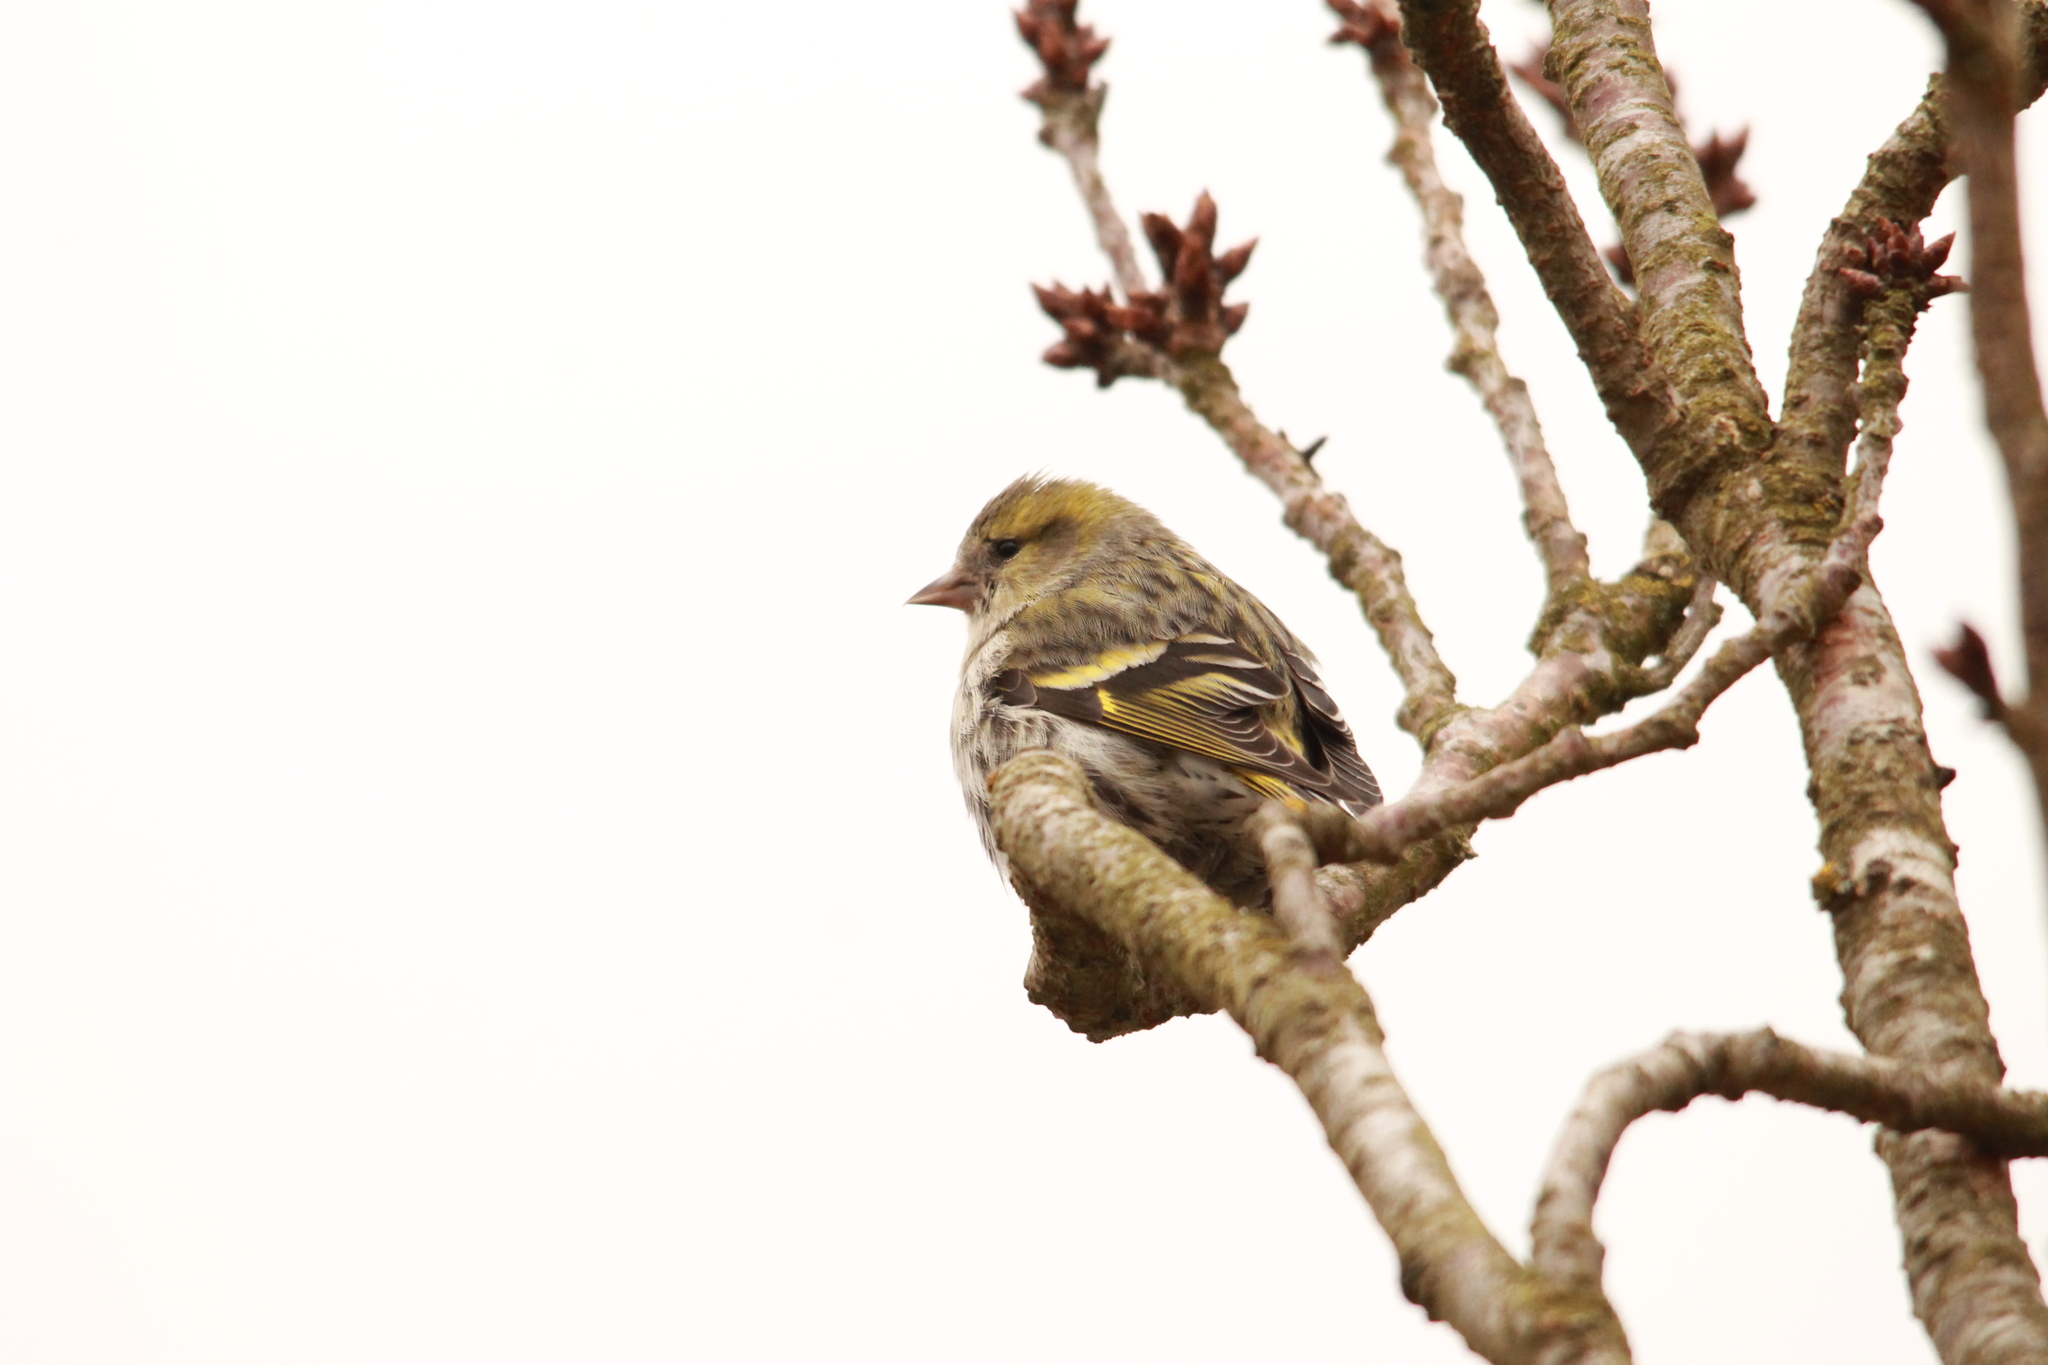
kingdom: Animalia
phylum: Chordata
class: Aves
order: Passeriformes
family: Fringillidae
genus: Spinus
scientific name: Spinus spinus
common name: Eurasian siskin
